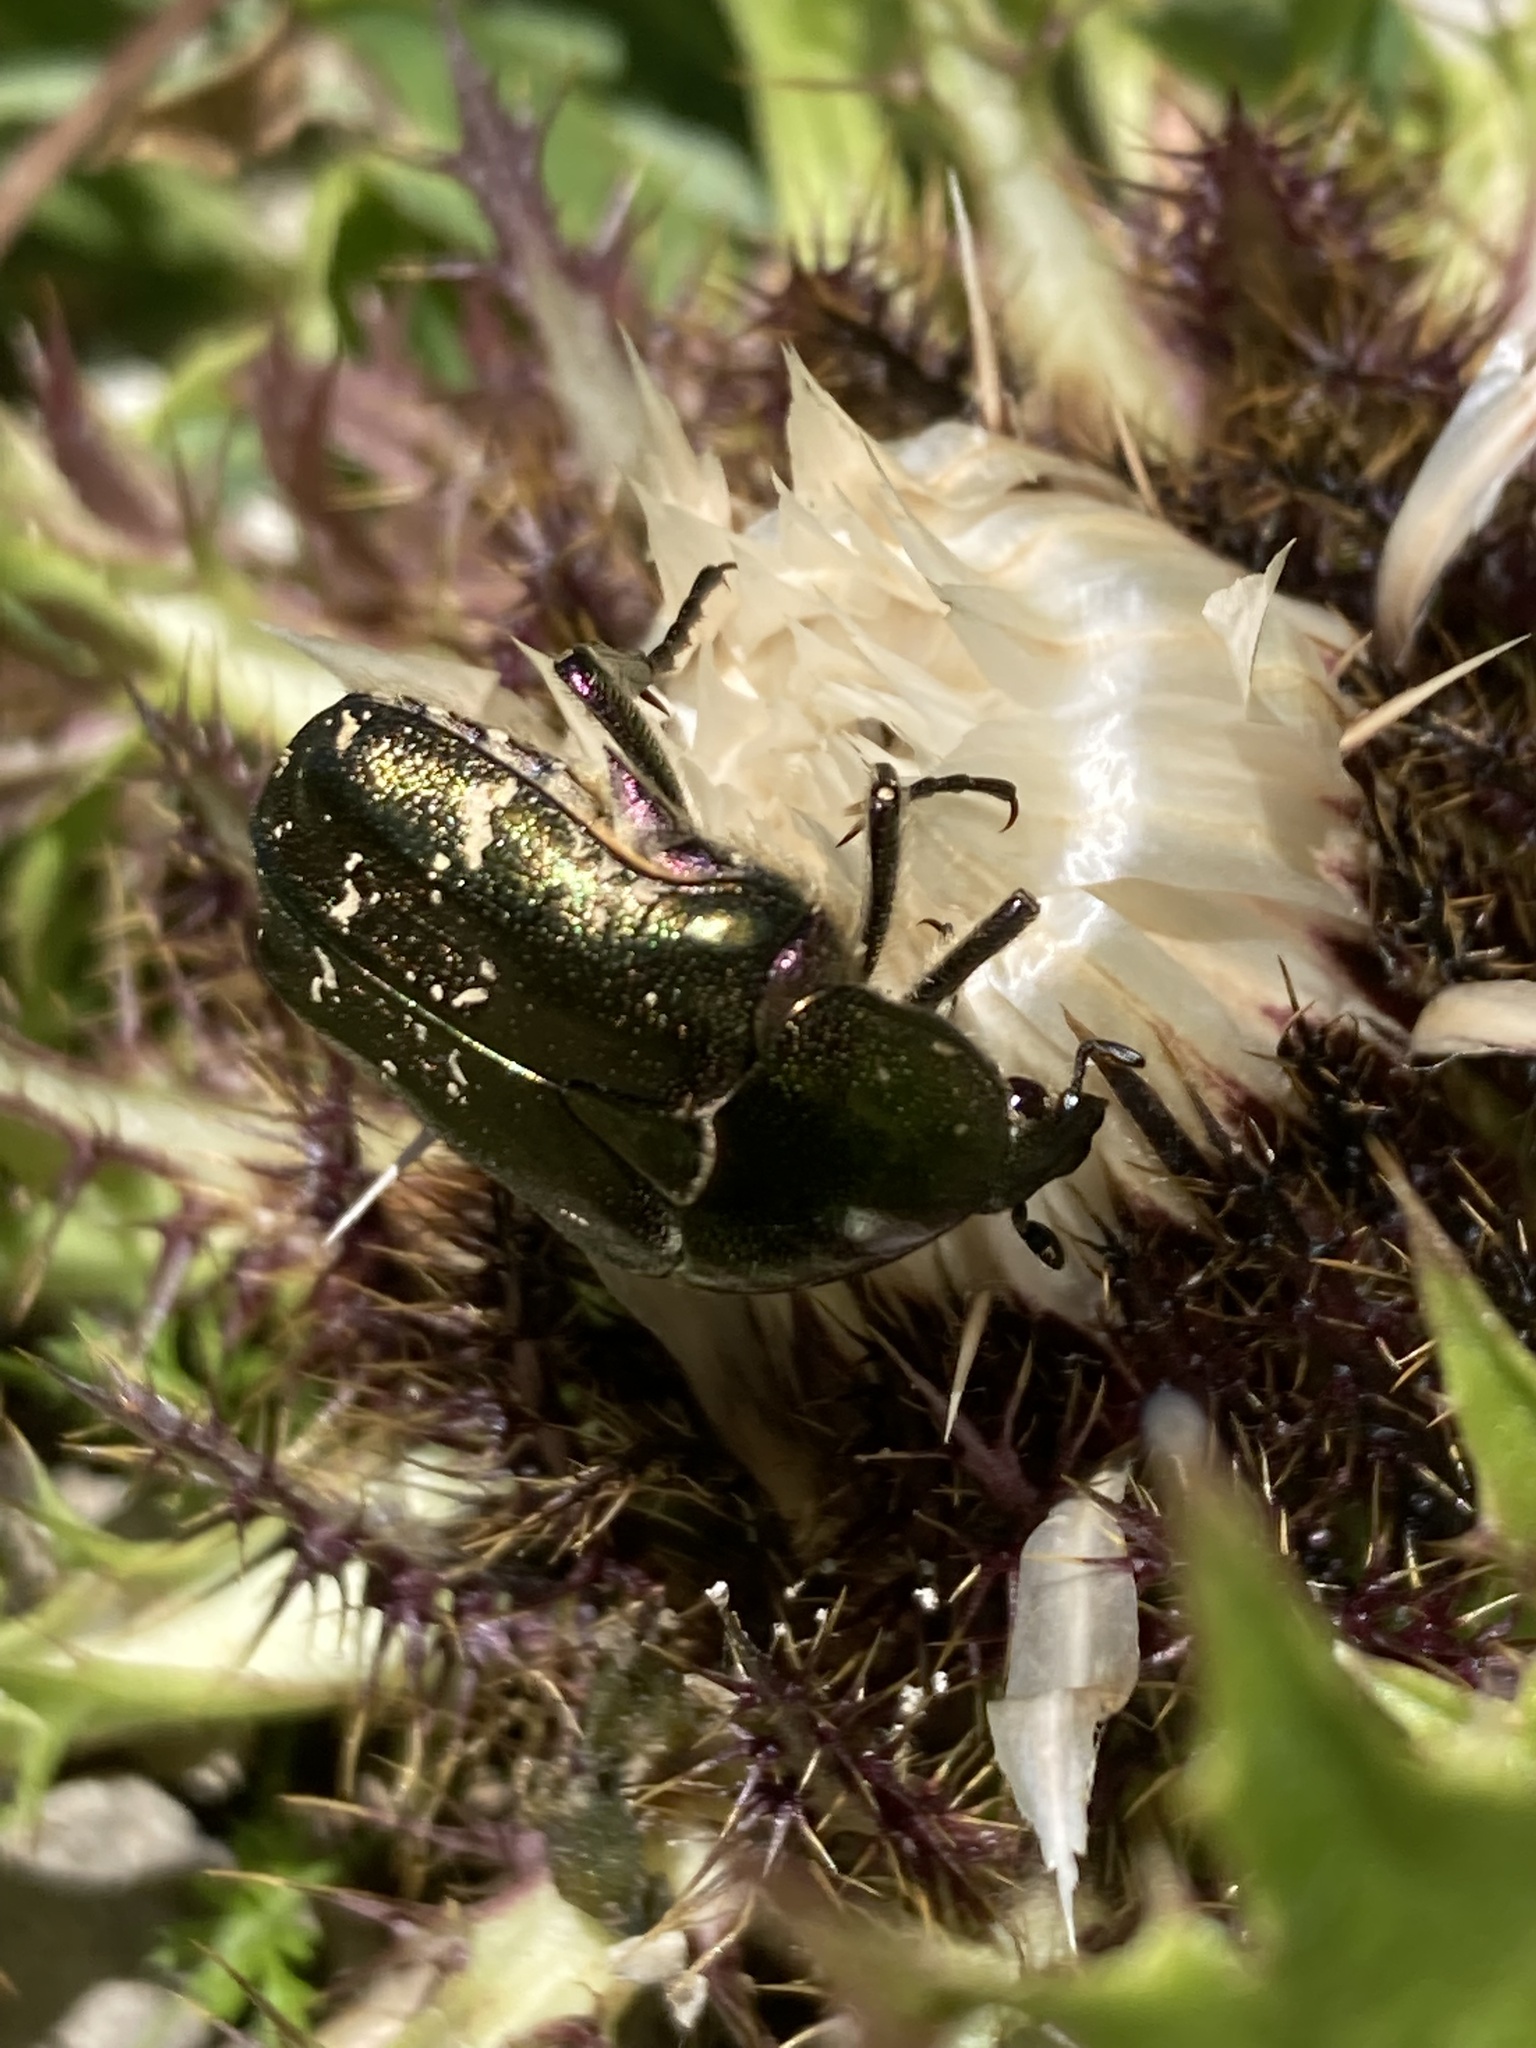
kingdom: Animalia
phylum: Arthropoda
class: Insecta
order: Coleoptera
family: Scarabaeidae
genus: Protaetia
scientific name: Protaetia cuprea
